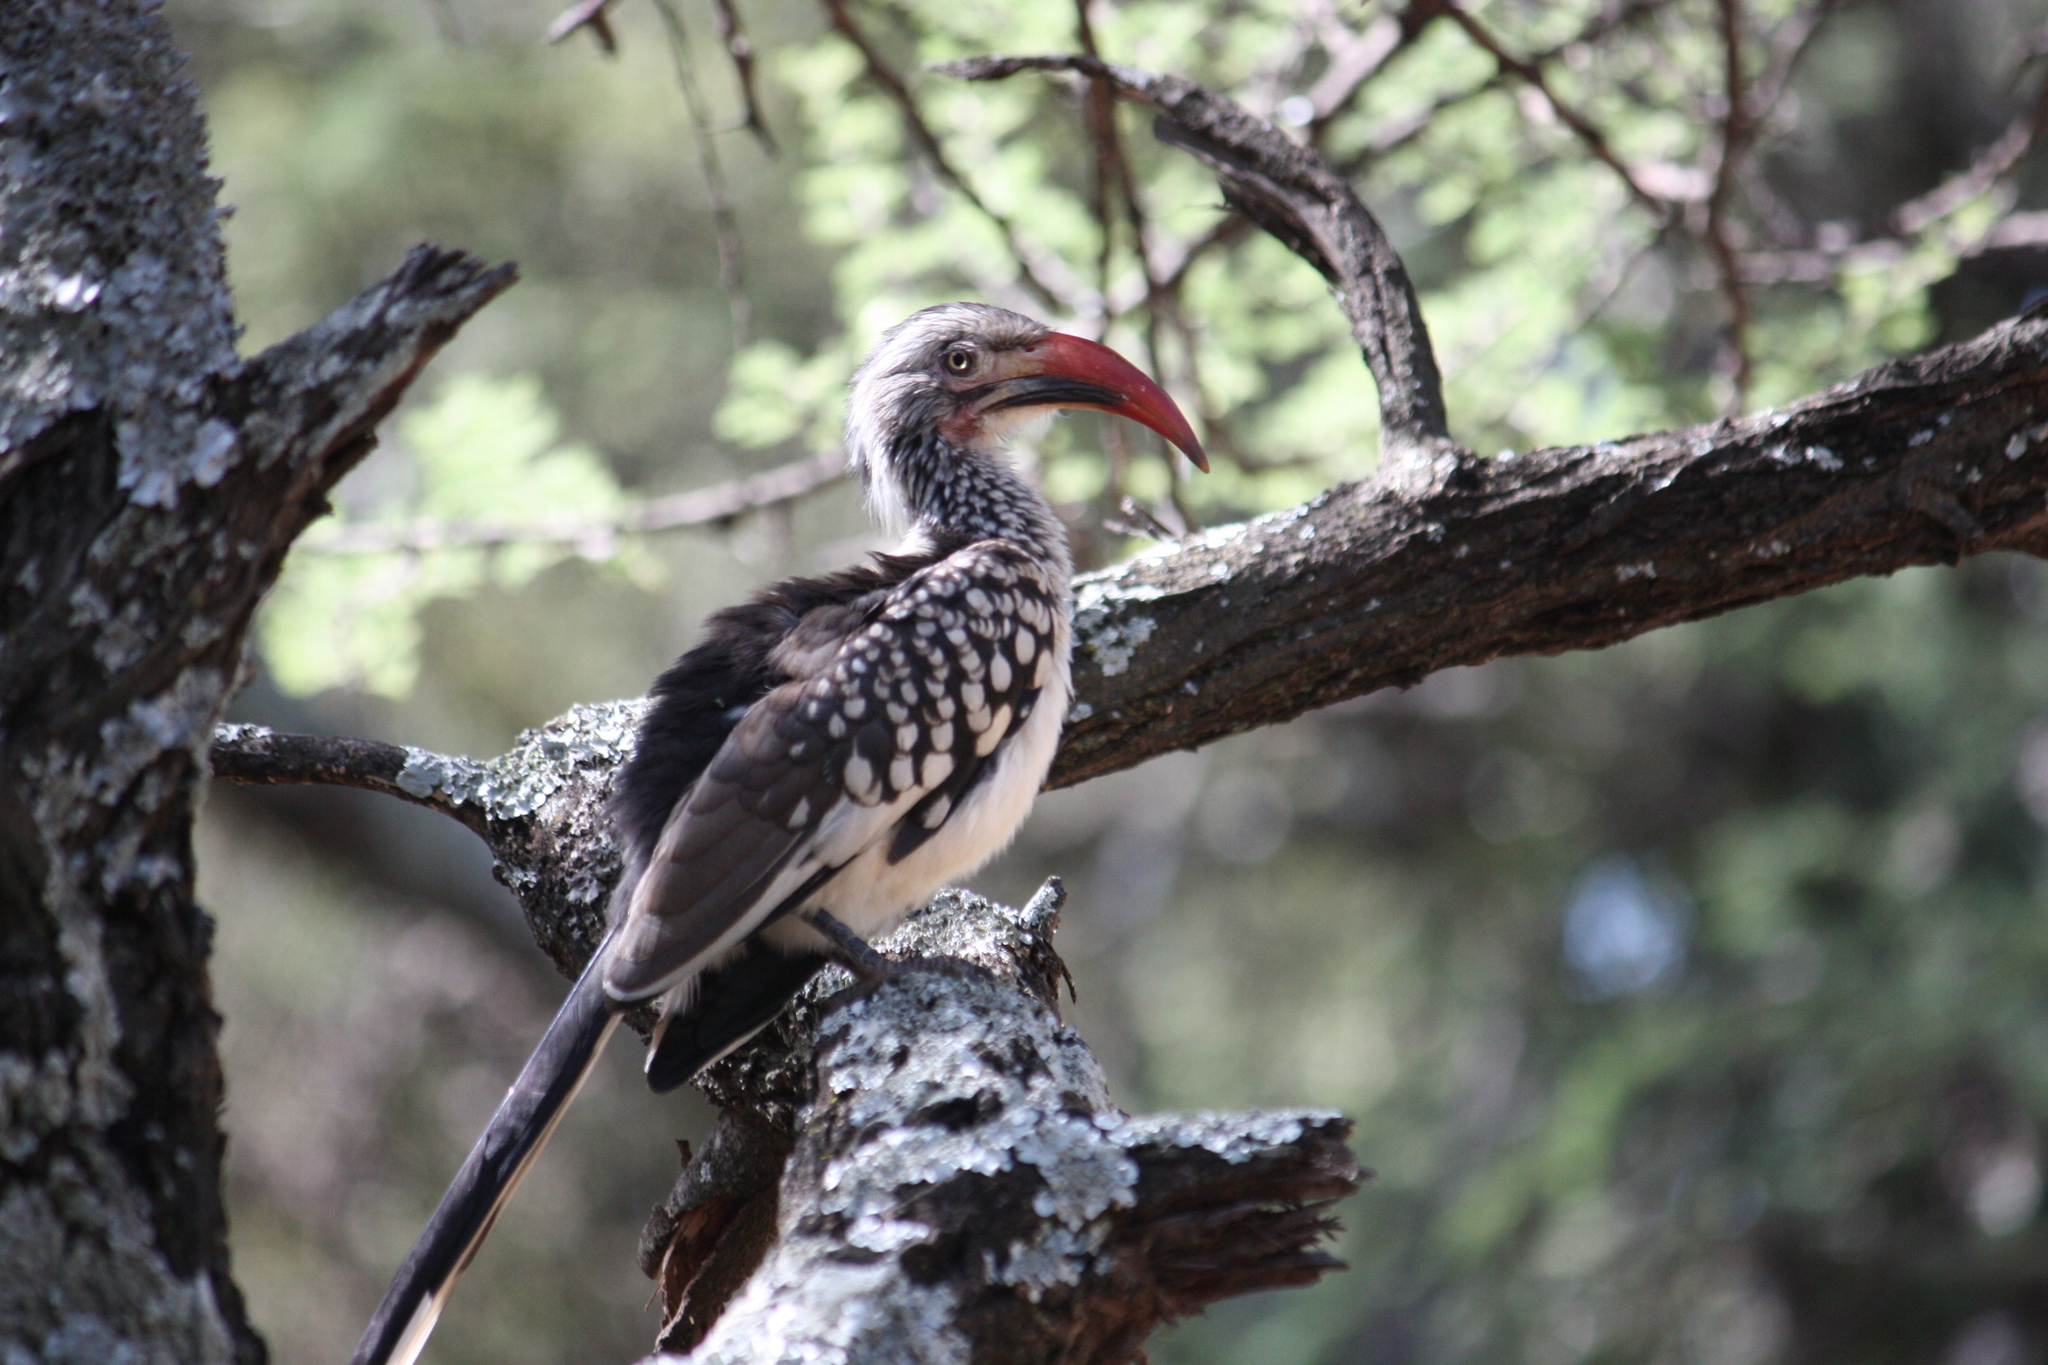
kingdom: Animalia
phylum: Chordata
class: Aves
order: Bucerotiformes
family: Bucerotidae
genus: Tockus
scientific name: Tockus rufirostris
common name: Southern red-billed hornbill
